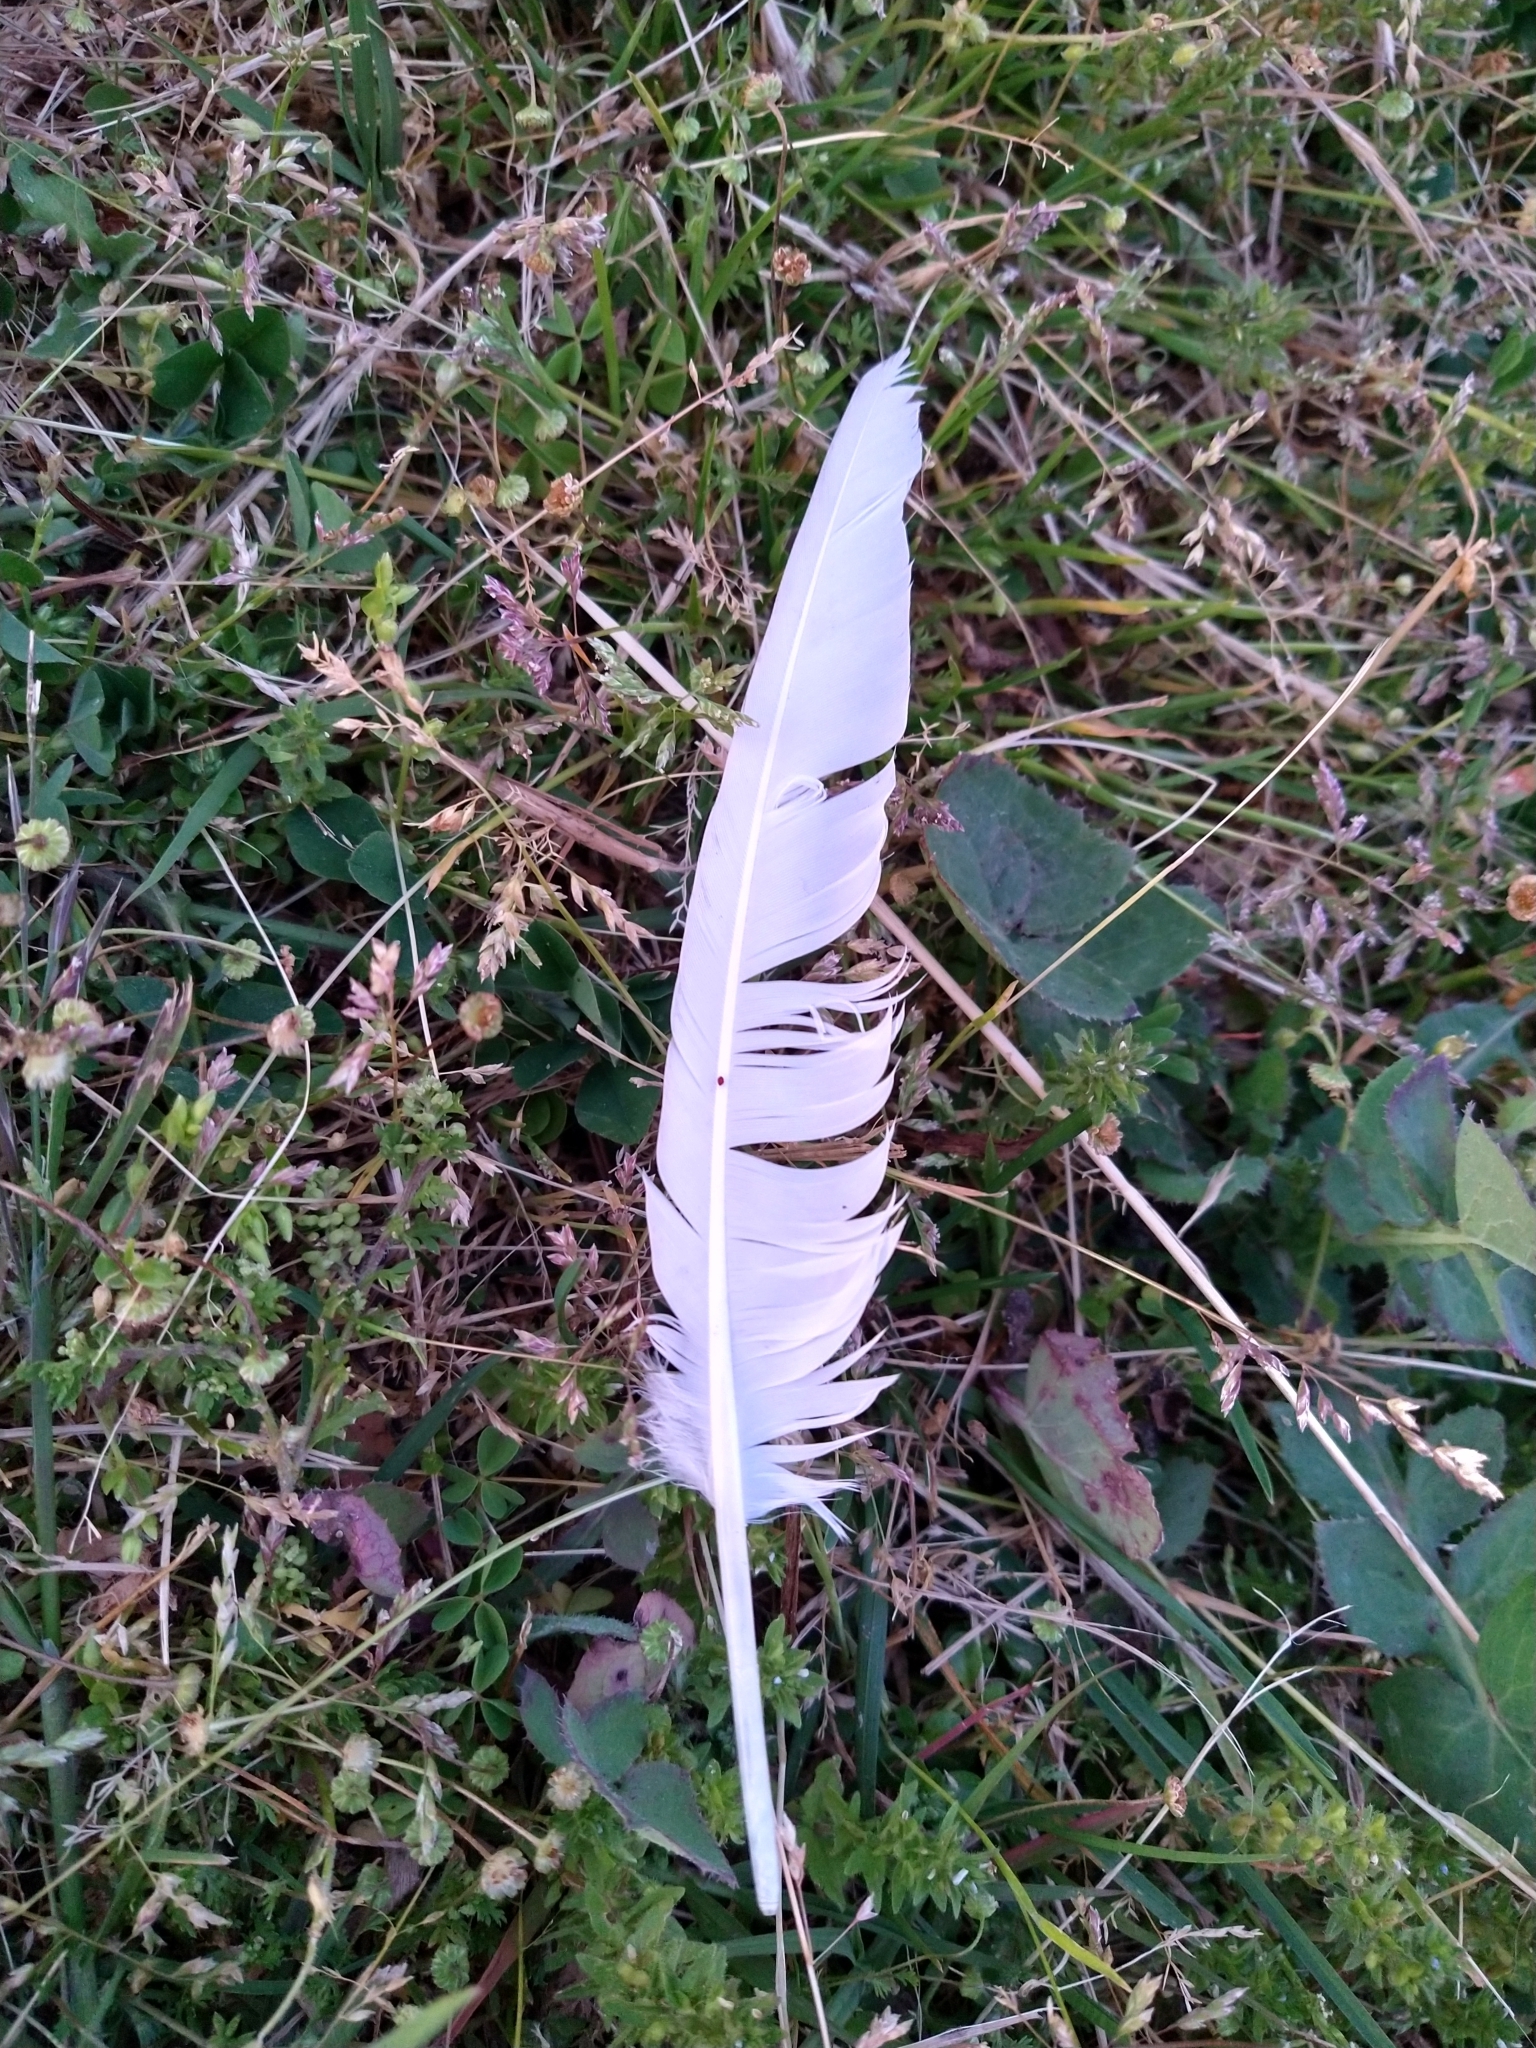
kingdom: Animalia
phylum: Chordata
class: Aves
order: Columbiformes
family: Columbidae
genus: Columba
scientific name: Columba livia
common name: Rock pigeon
